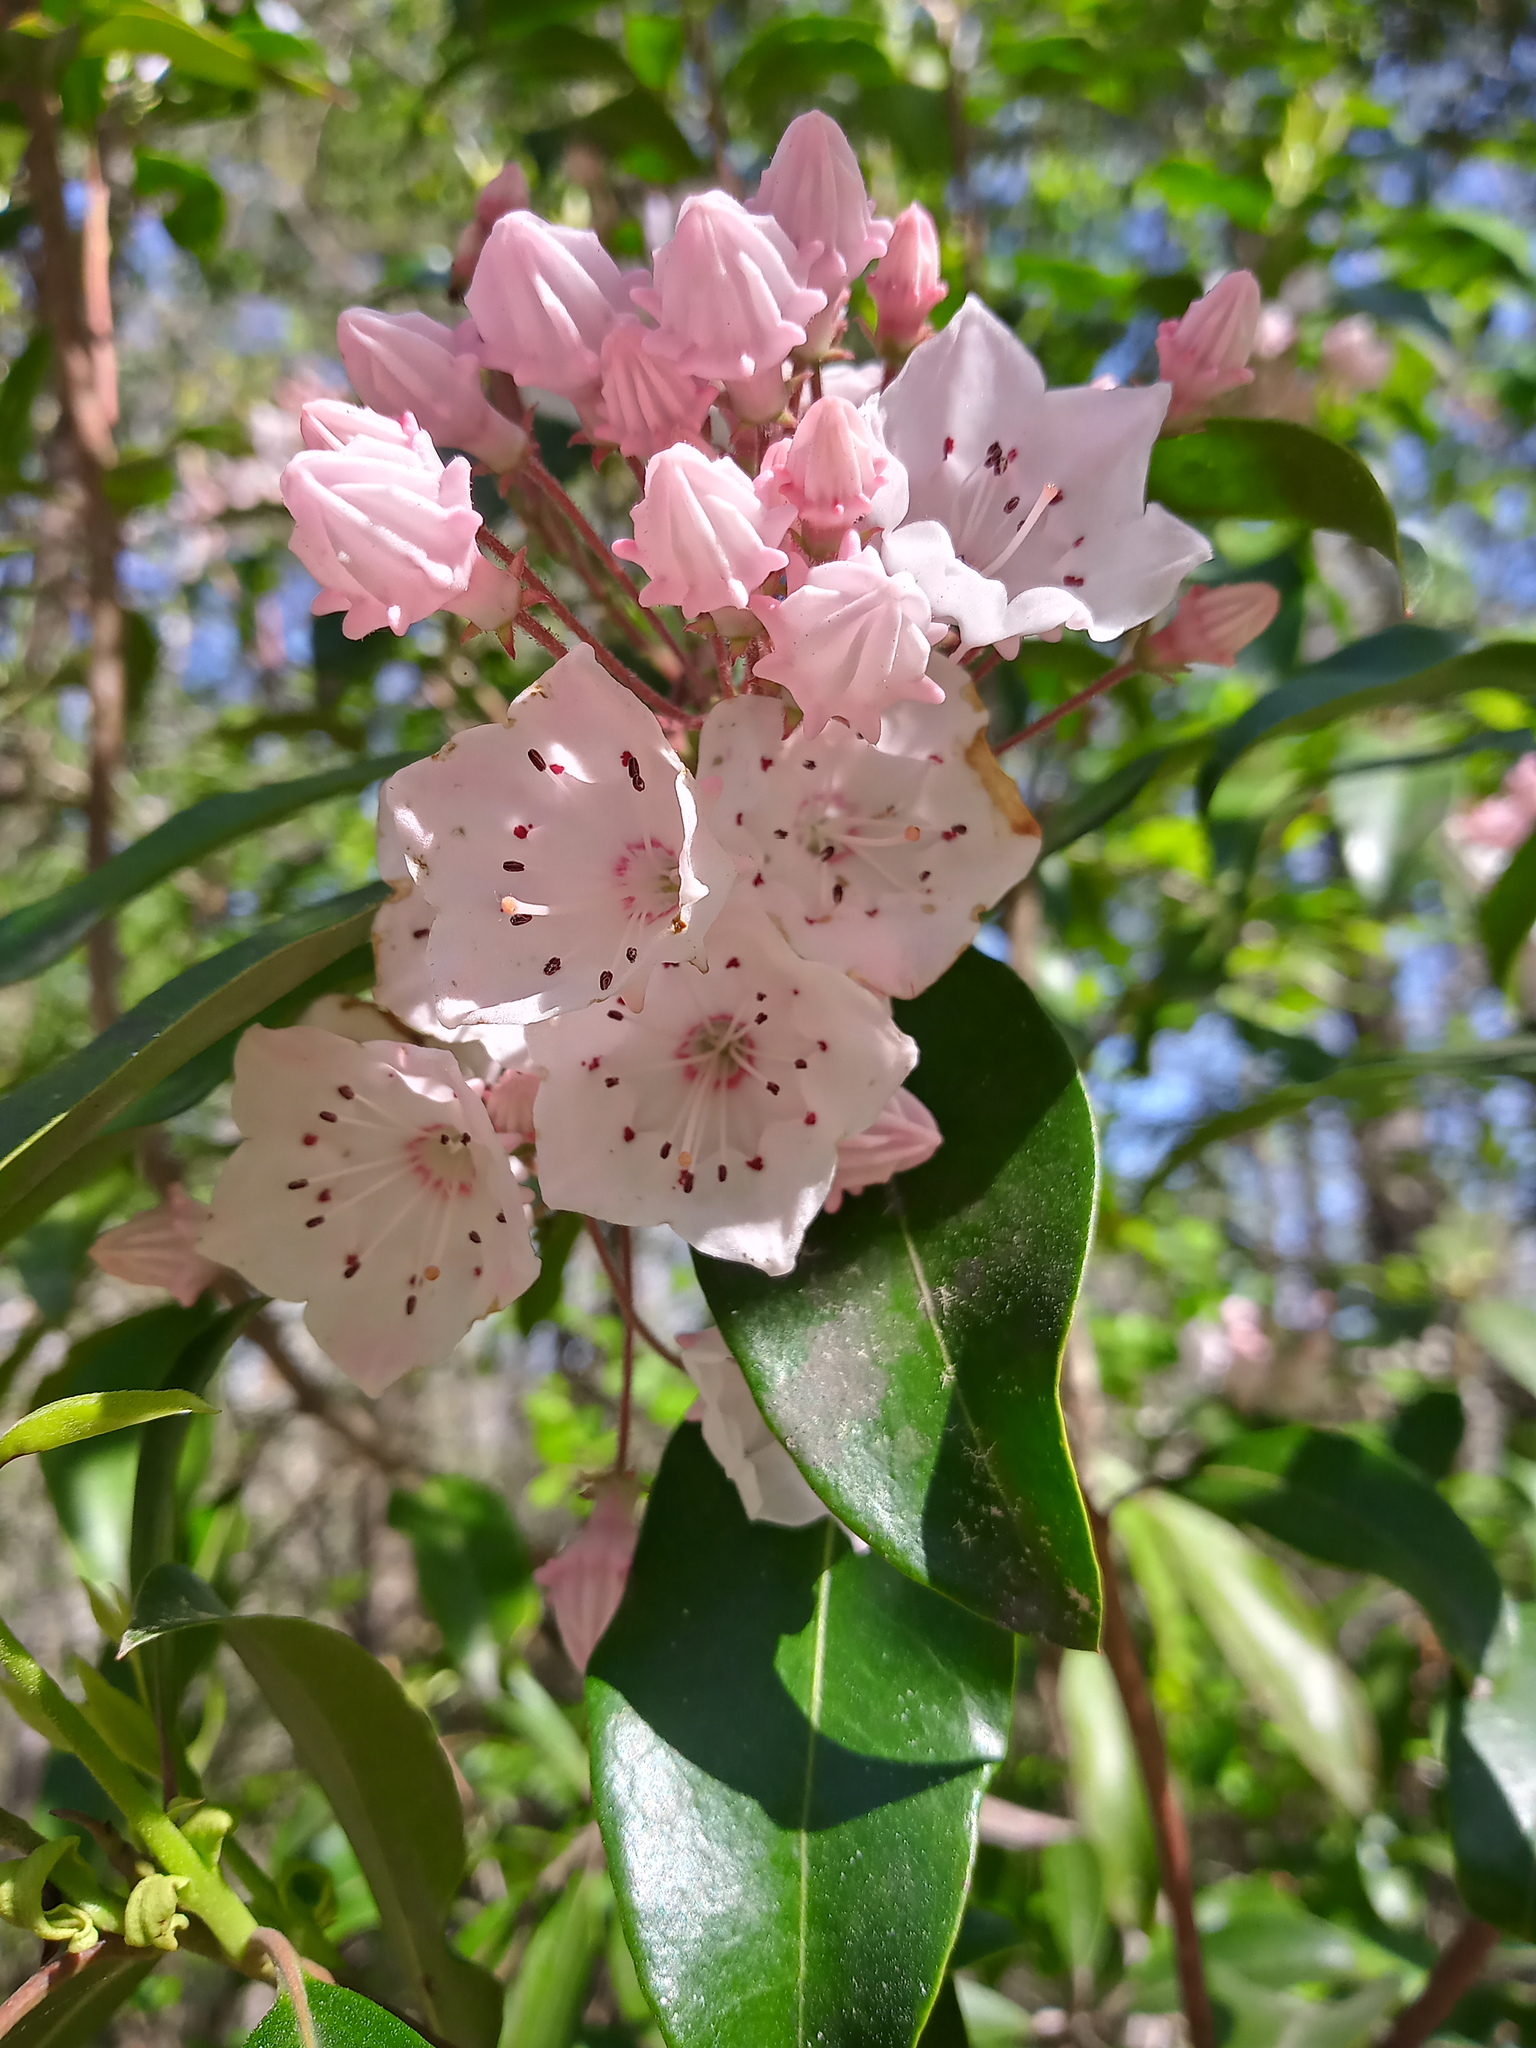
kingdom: Plantae
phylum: Tracheophyta
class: Magnoliopsida
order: Ericales
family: Ericaceae
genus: Kalmia
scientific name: Kalmia latifolia
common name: Mountain-laurel
